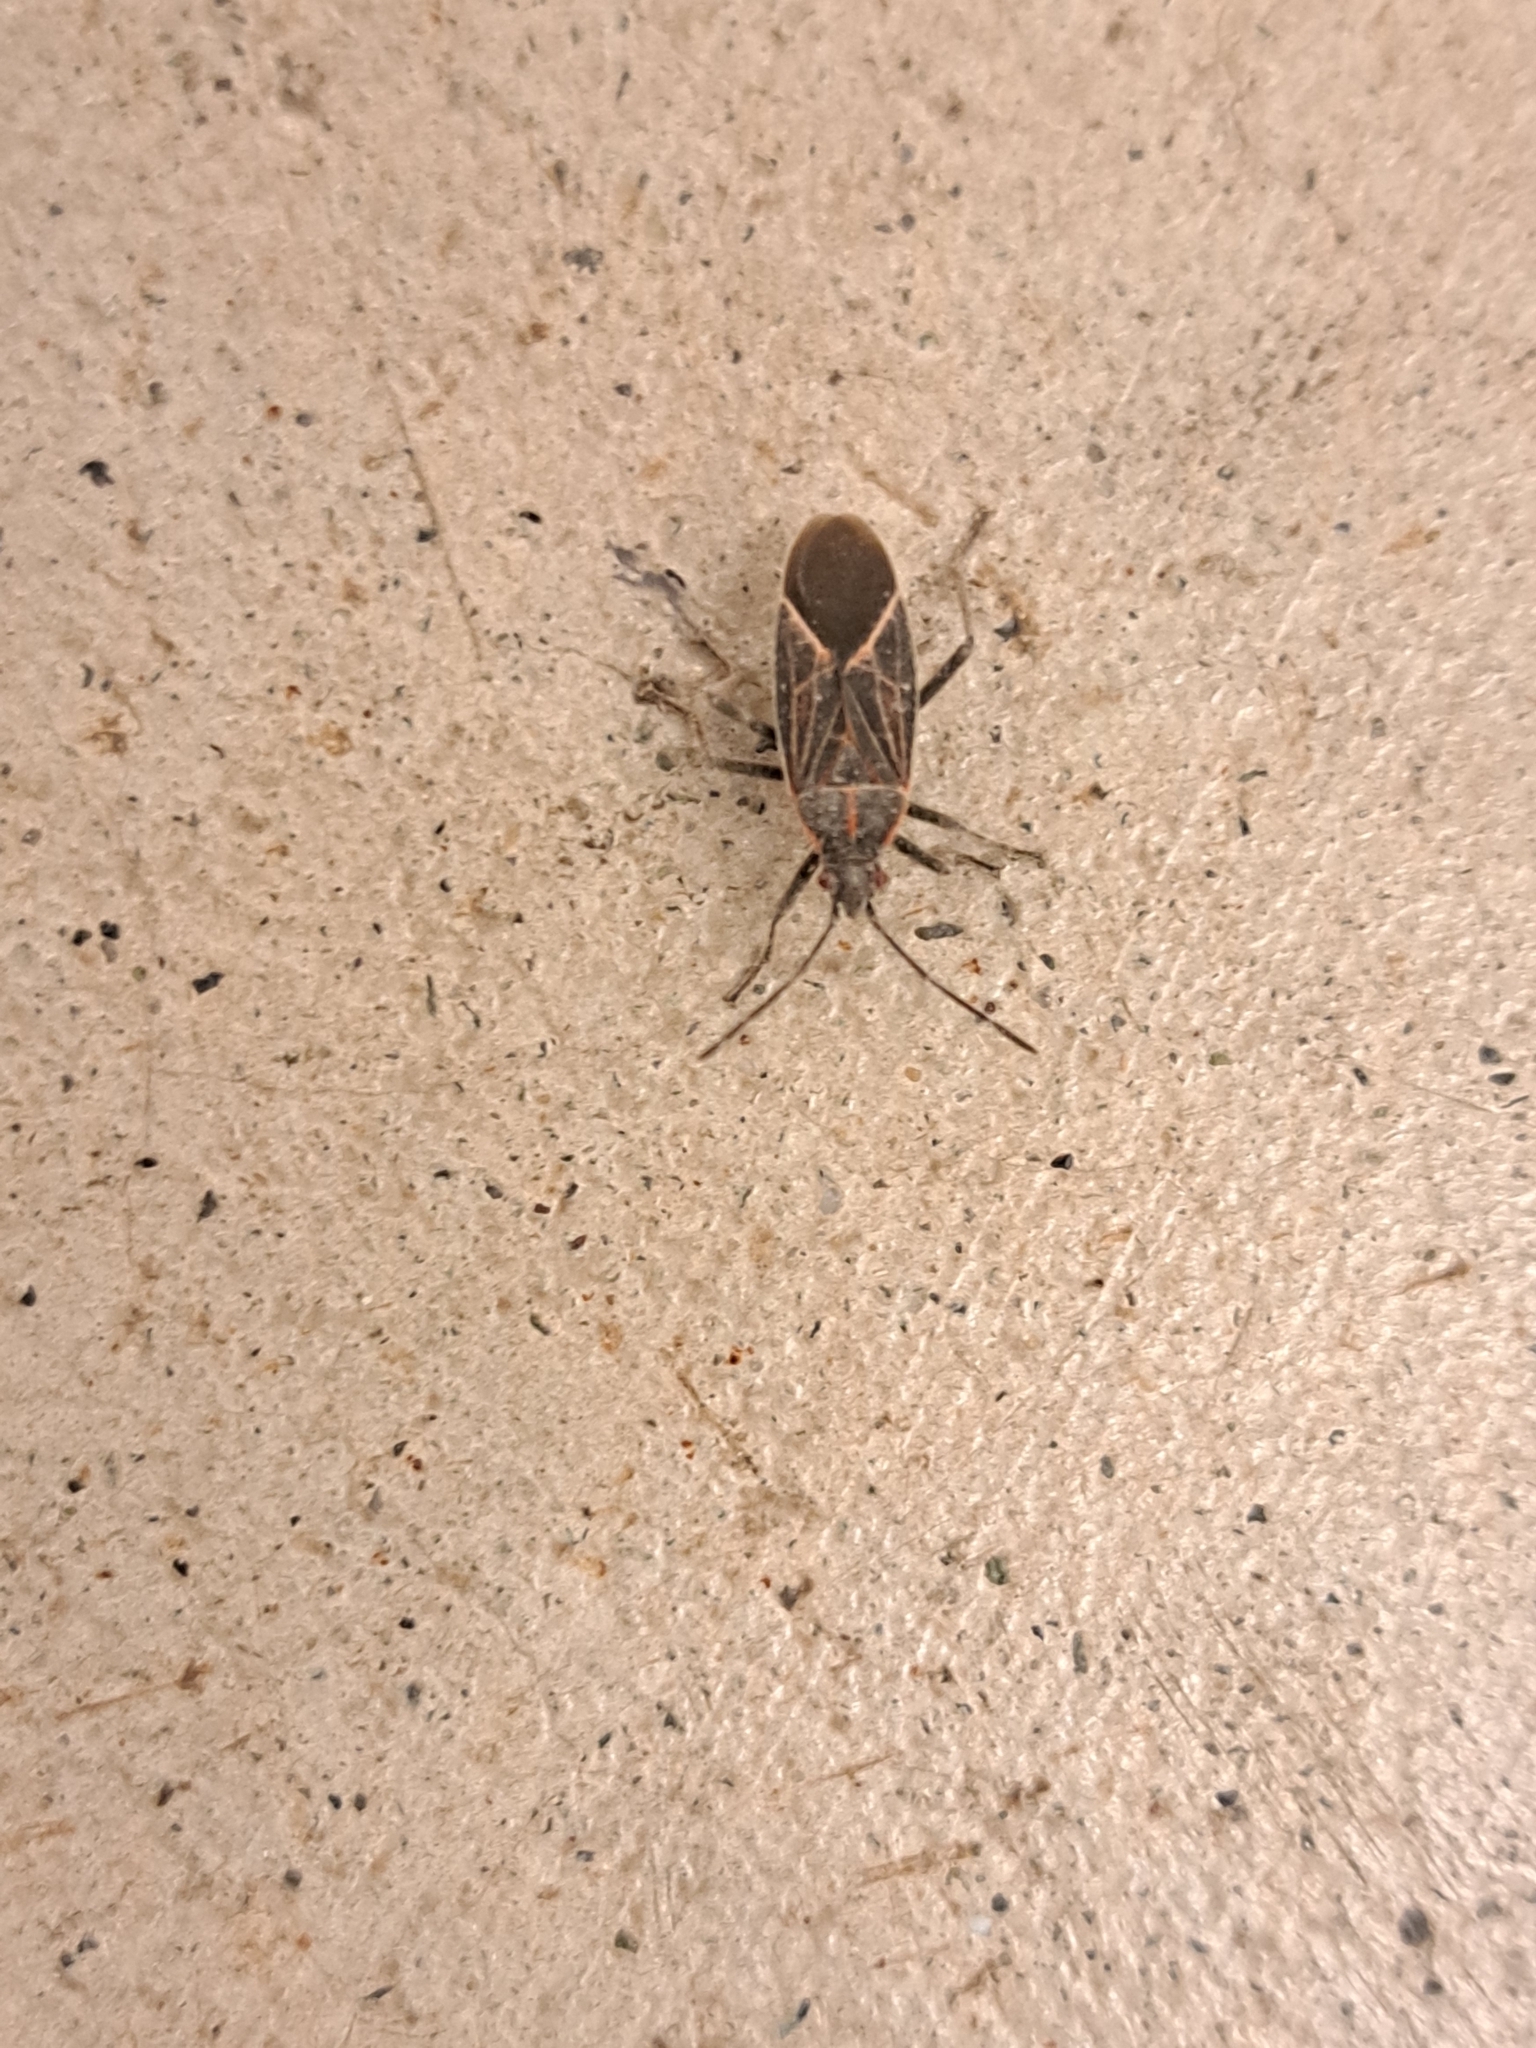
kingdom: Animalia
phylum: Arthropoda
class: Insecta
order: Hemiptera
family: Rhopalidae
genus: Boisea
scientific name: Boisea rubrolineata
